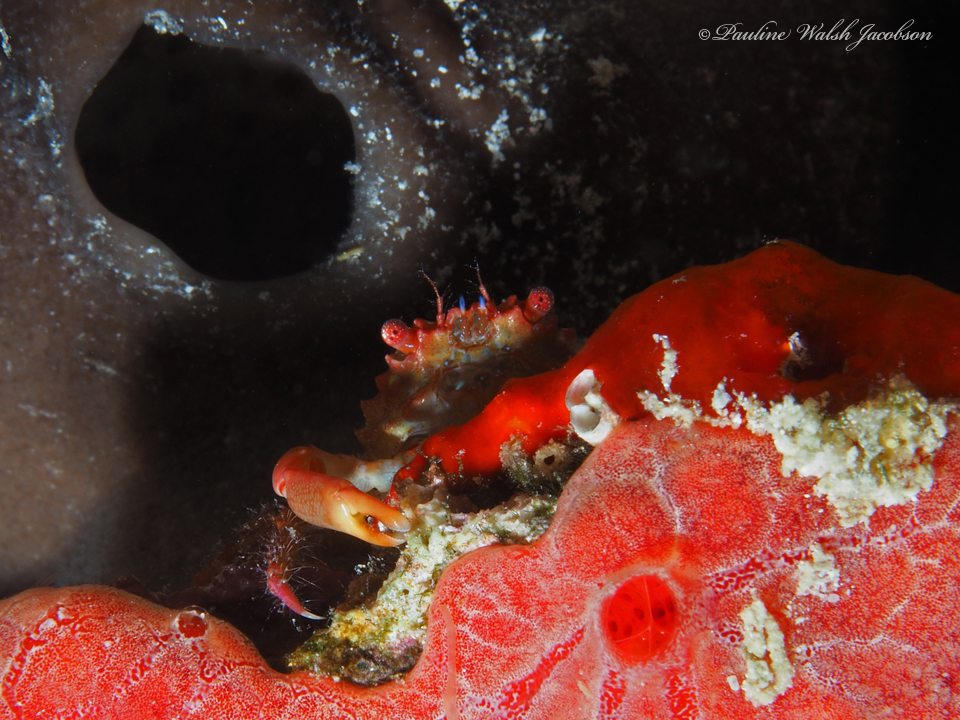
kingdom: Animalia
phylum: Arthropoda
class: Malacostraca
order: Decapoda
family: Mithracidae
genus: Mithraculus
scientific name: Mithraculus forceps
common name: Red-ridged clinging crab
